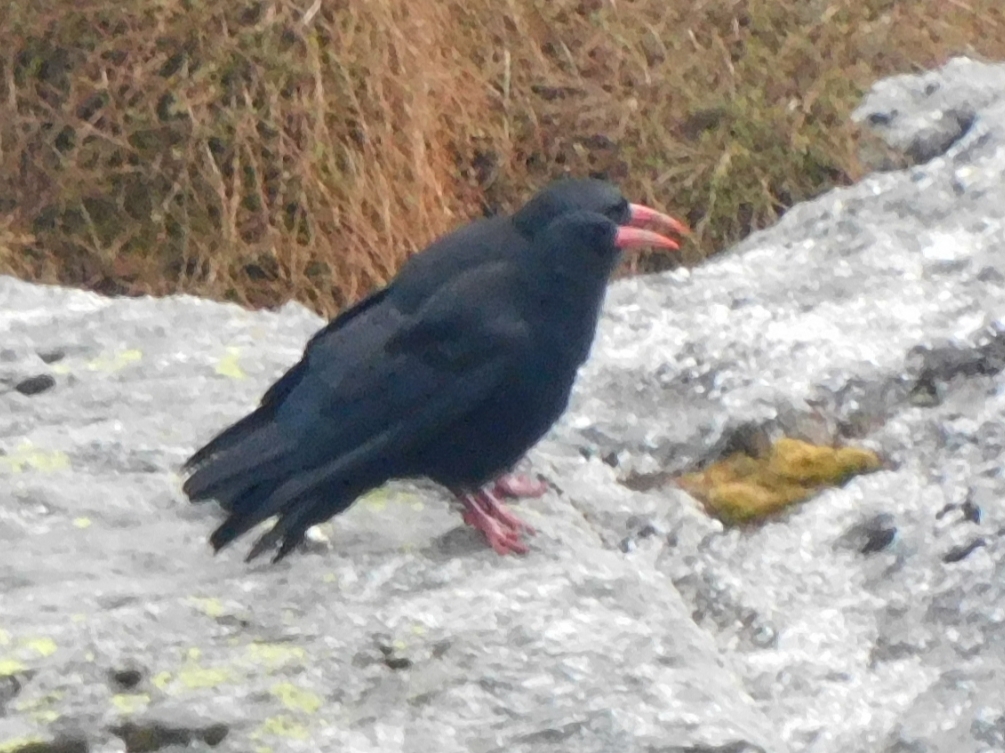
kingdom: Animalia
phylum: Chordata
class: Aves
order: Passeriformes
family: Corvidae
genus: Pyrrhocorax
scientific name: Pyrrhocorax pyrrhocorax
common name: Red-billed chough
